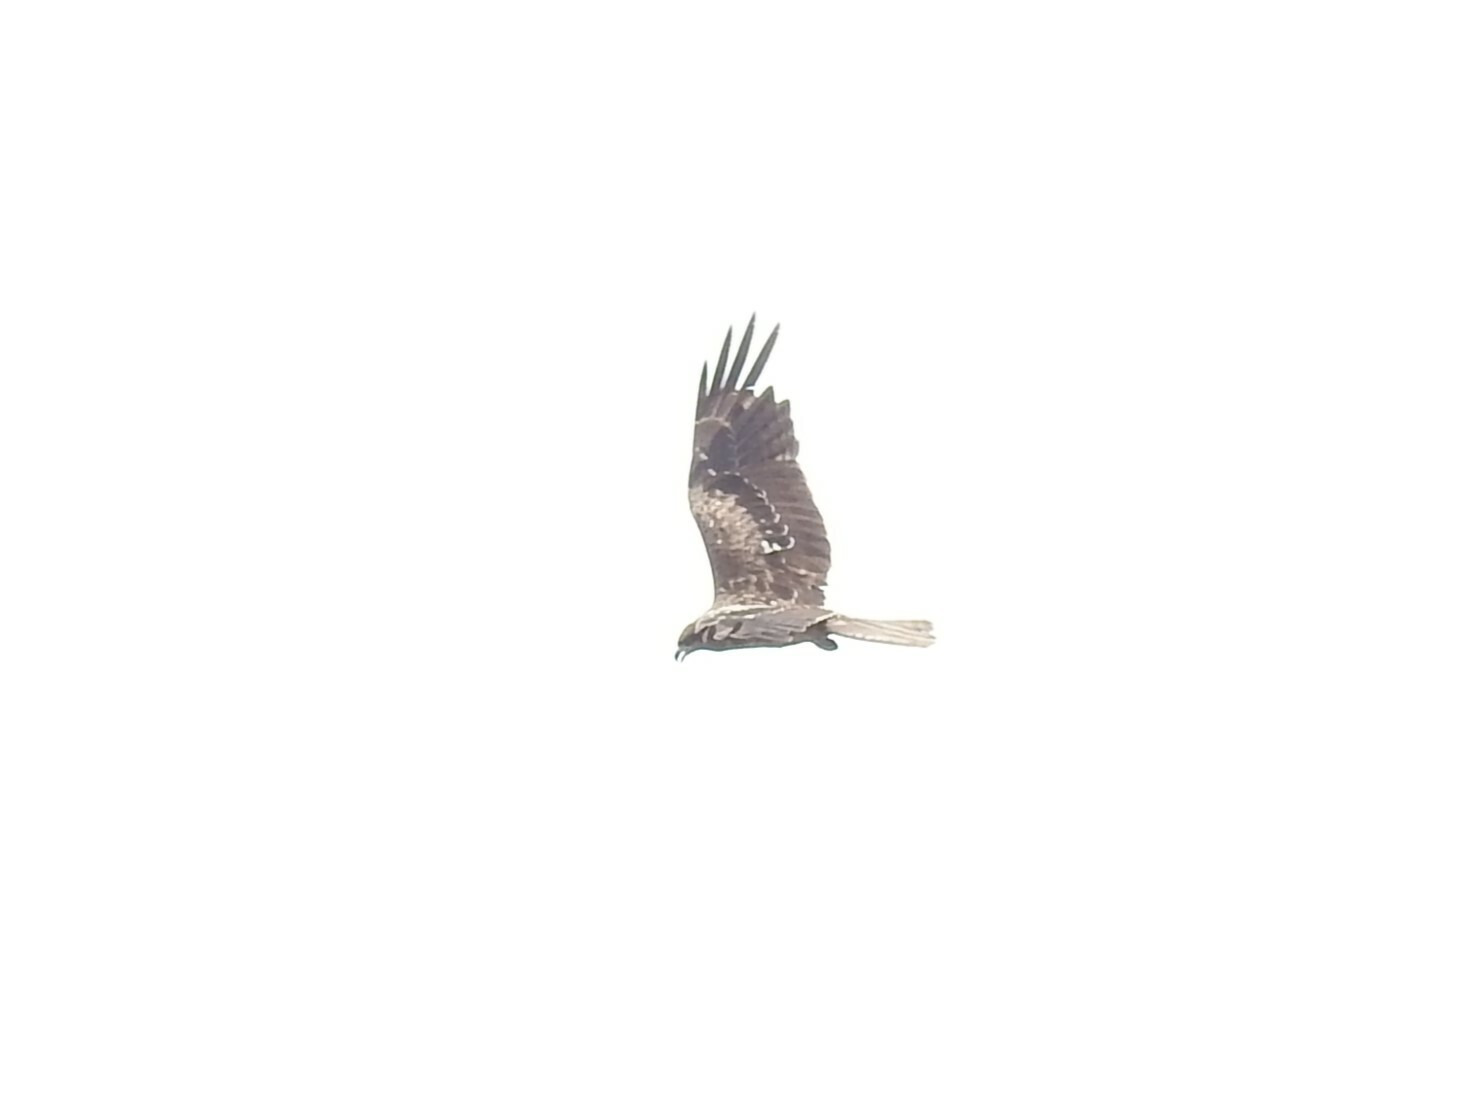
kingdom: Animalia
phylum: Chordata
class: Aves
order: Accipitriformes
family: Accipitridae
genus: Milvus
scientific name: Milvus migrans
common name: Black kite
